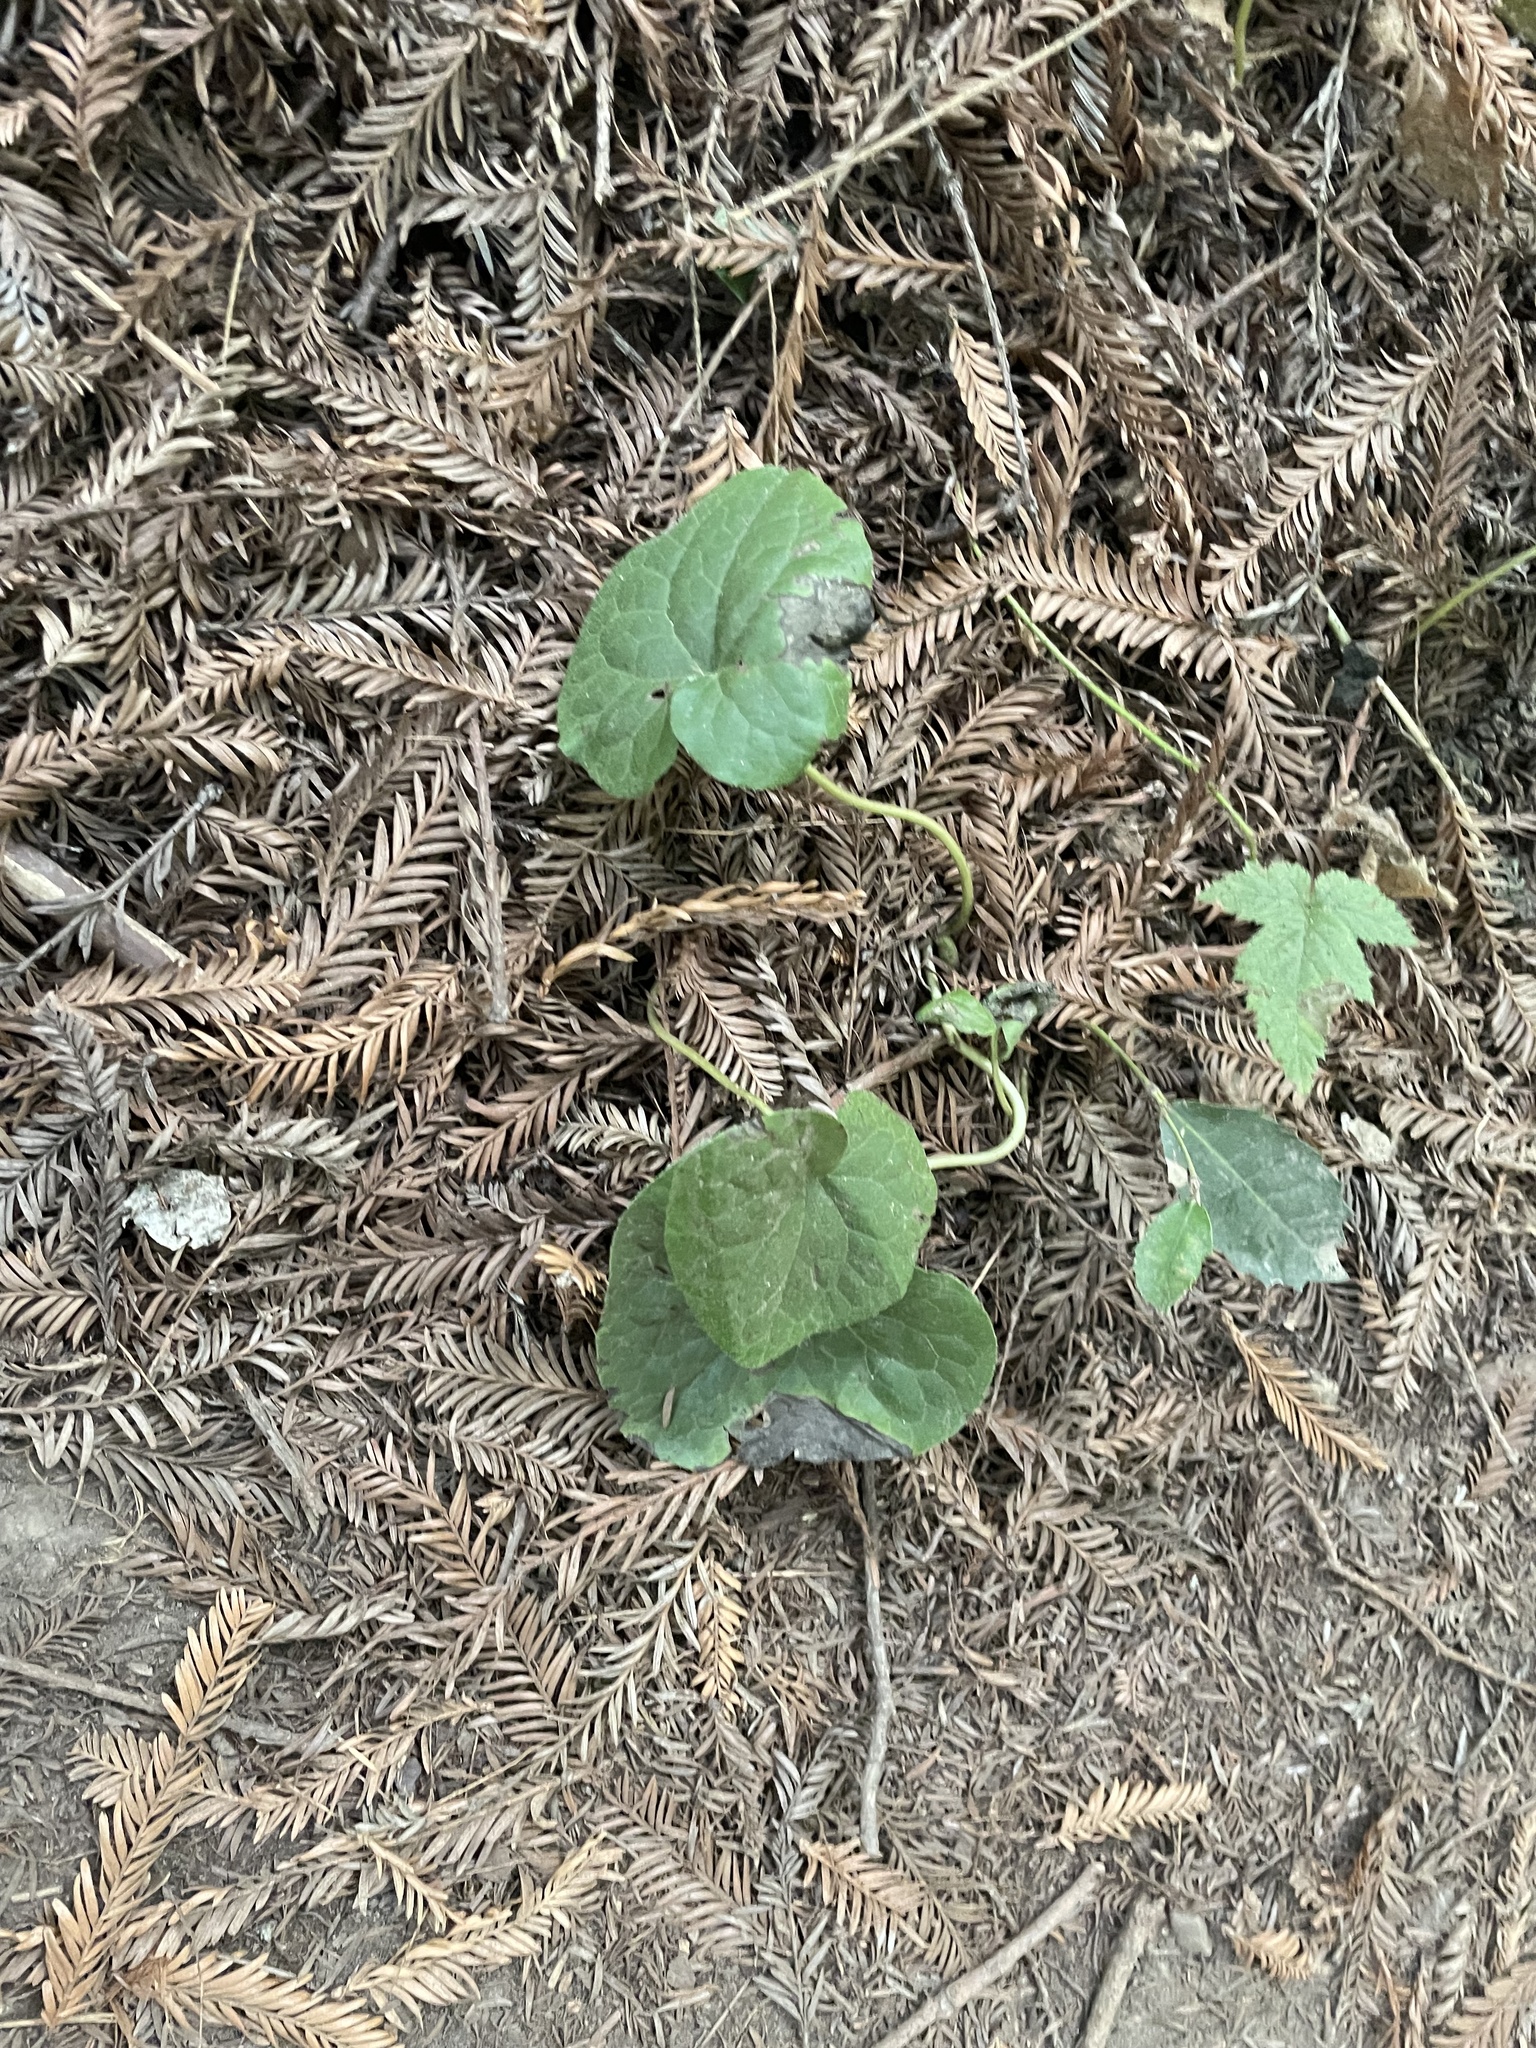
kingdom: Plantae
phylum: Tracheophyta
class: Magnoliopsida
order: Piperales
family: Aristolochiaceae
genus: Asarum
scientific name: Asarum caudatum
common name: Wild ginger
